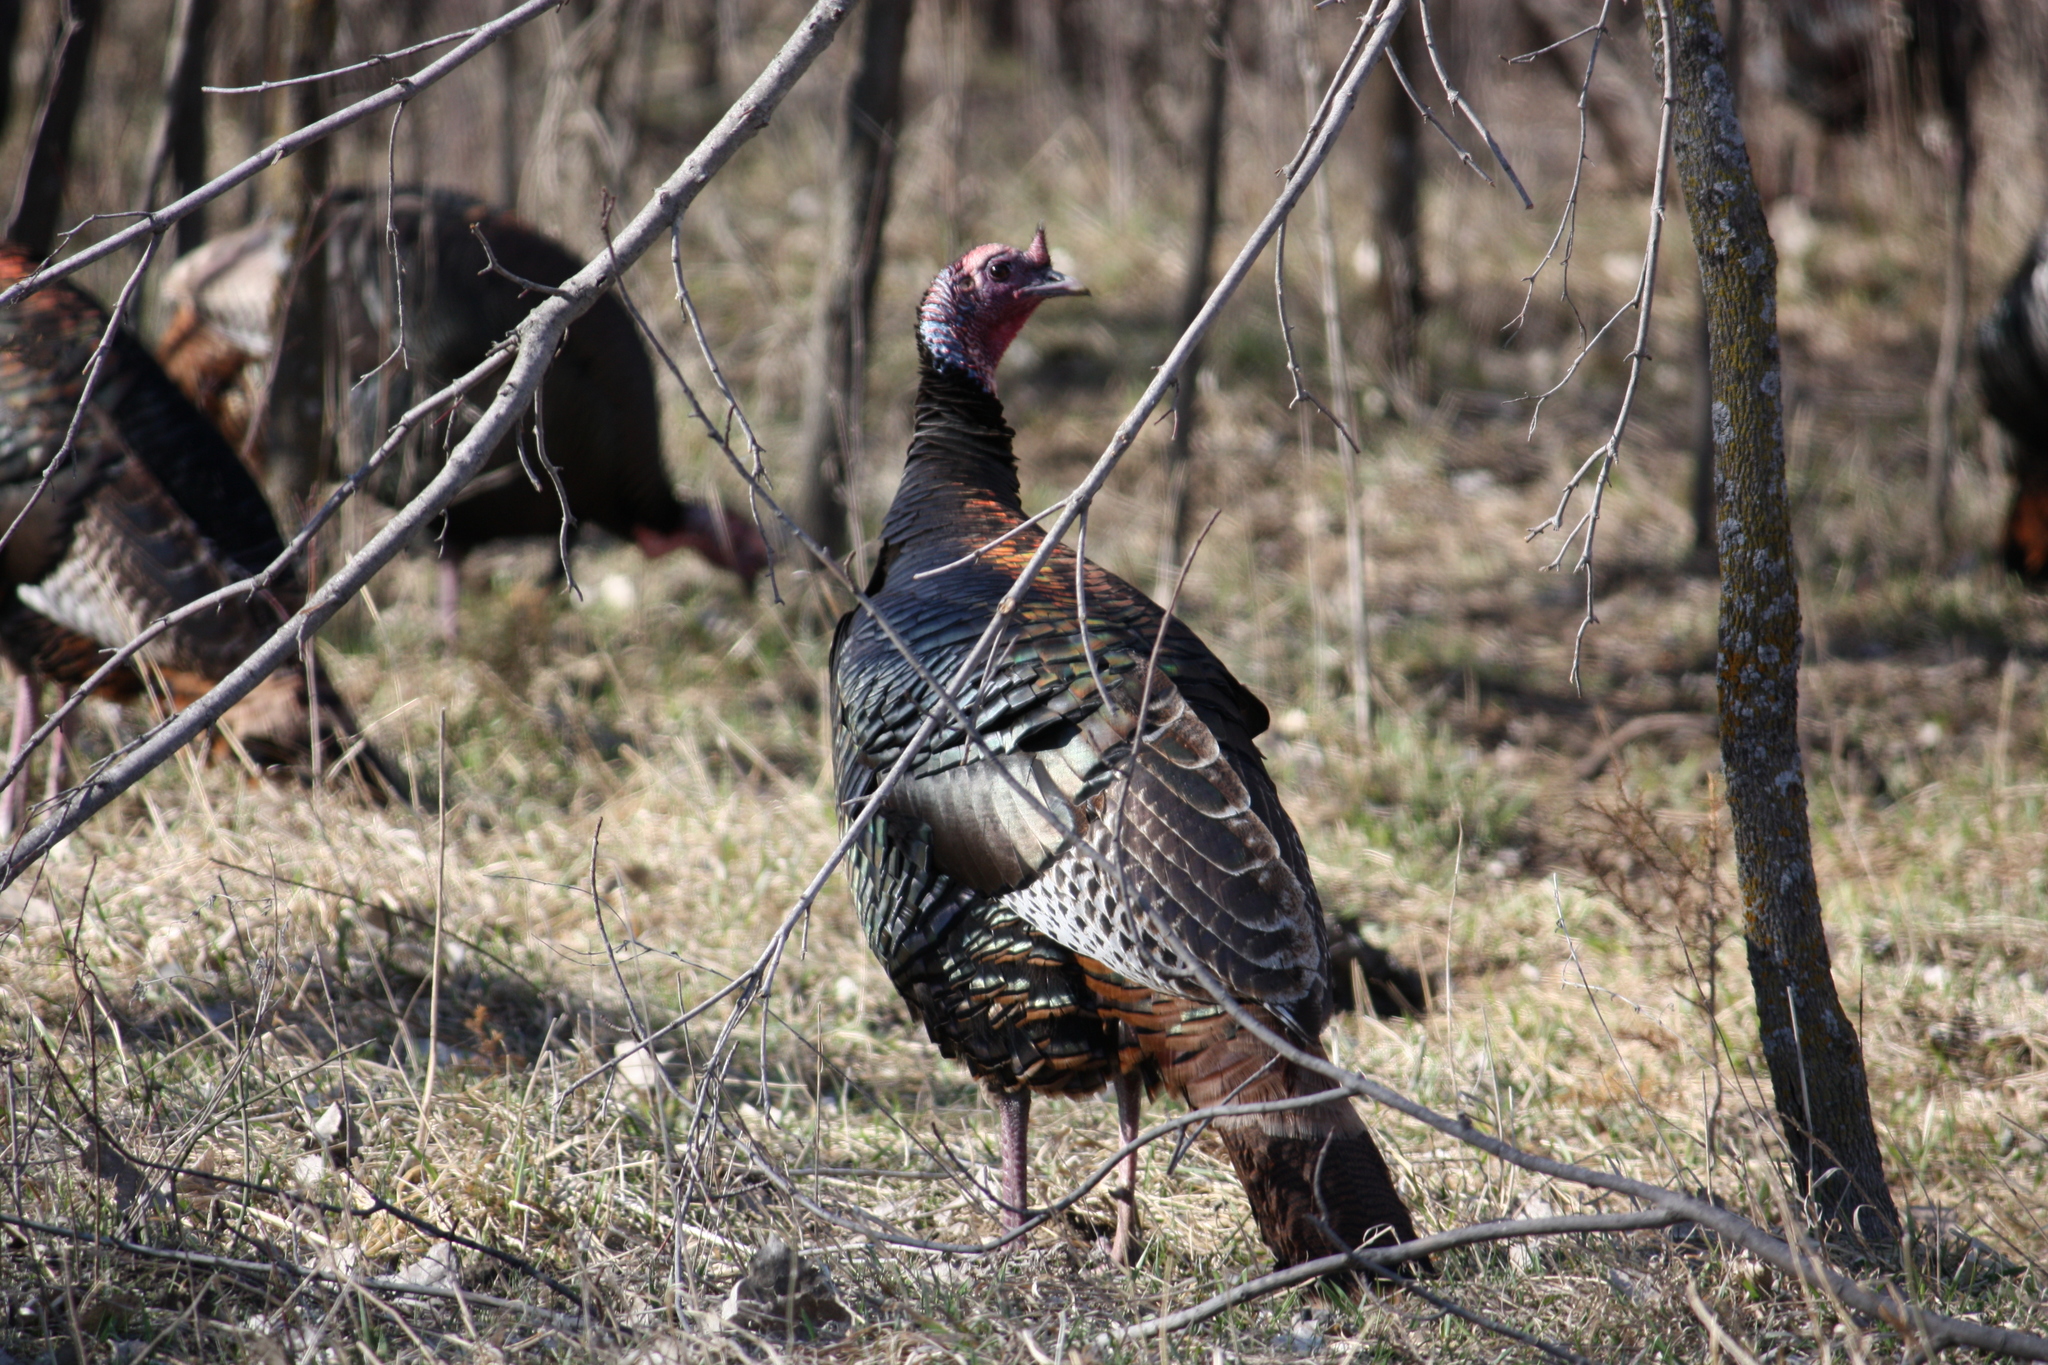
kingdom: Animalia
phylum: Chordata
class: Aves
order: Galliformes
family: Phasianidae
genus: Meleagris
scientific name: Meleagris gallopavo
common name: Wild turkey
